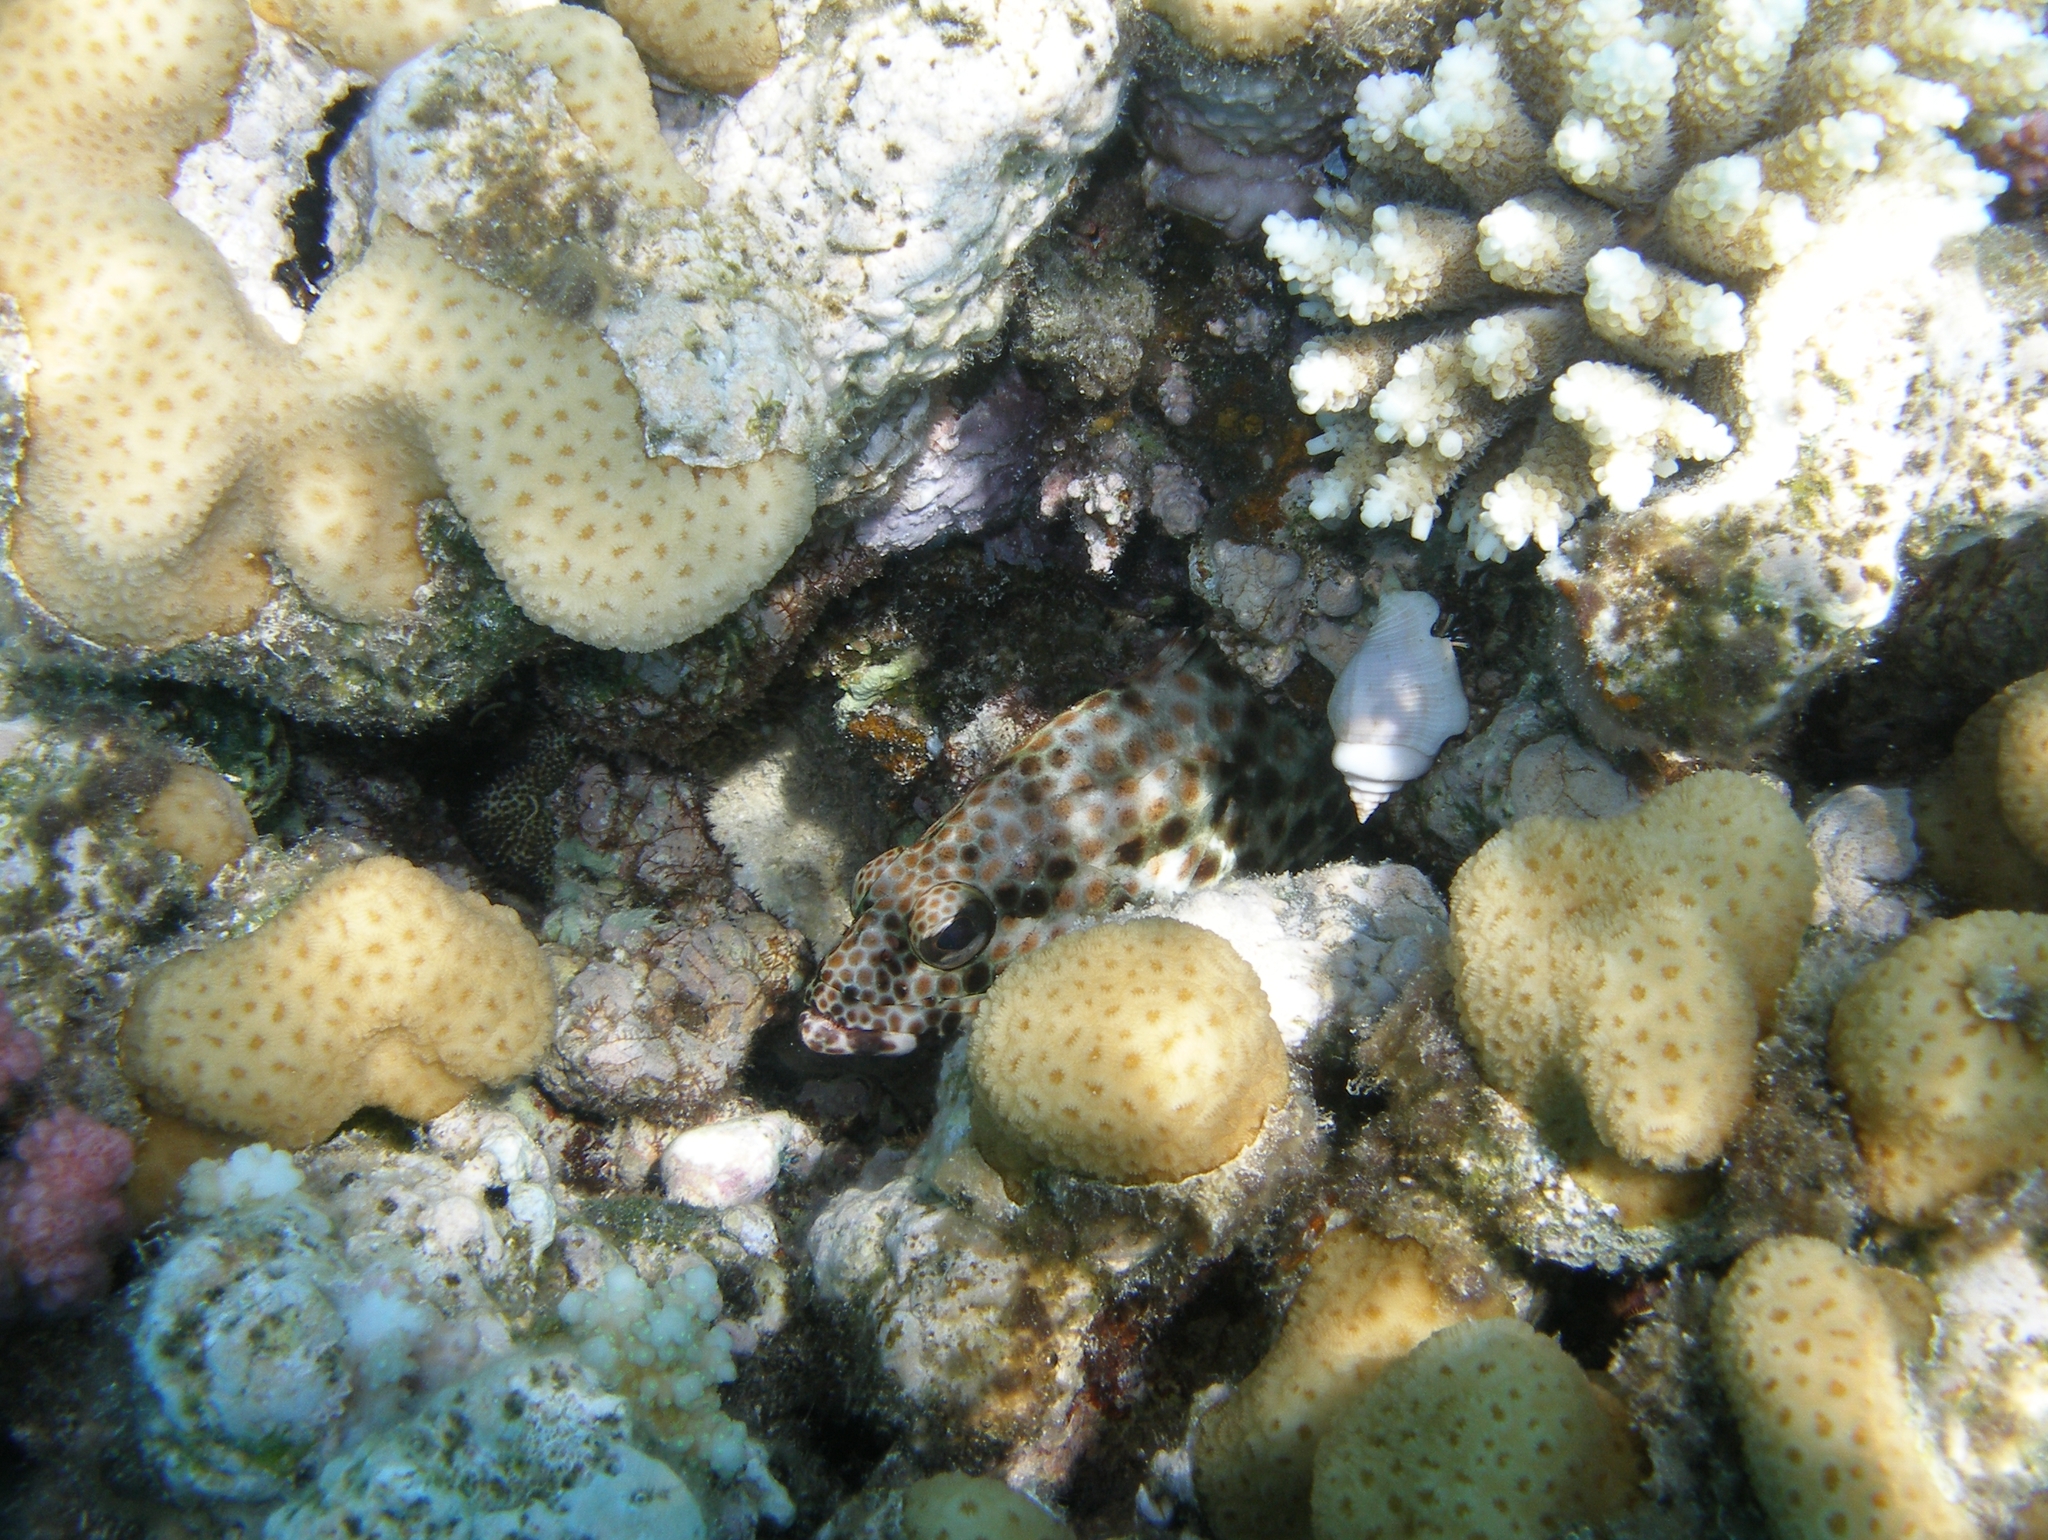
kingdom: Animalia
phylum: Chordata
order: Perciformes
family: Serranidae
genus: Epinephelus
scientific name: Epinephelus tauvina
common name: Greasy grouper
